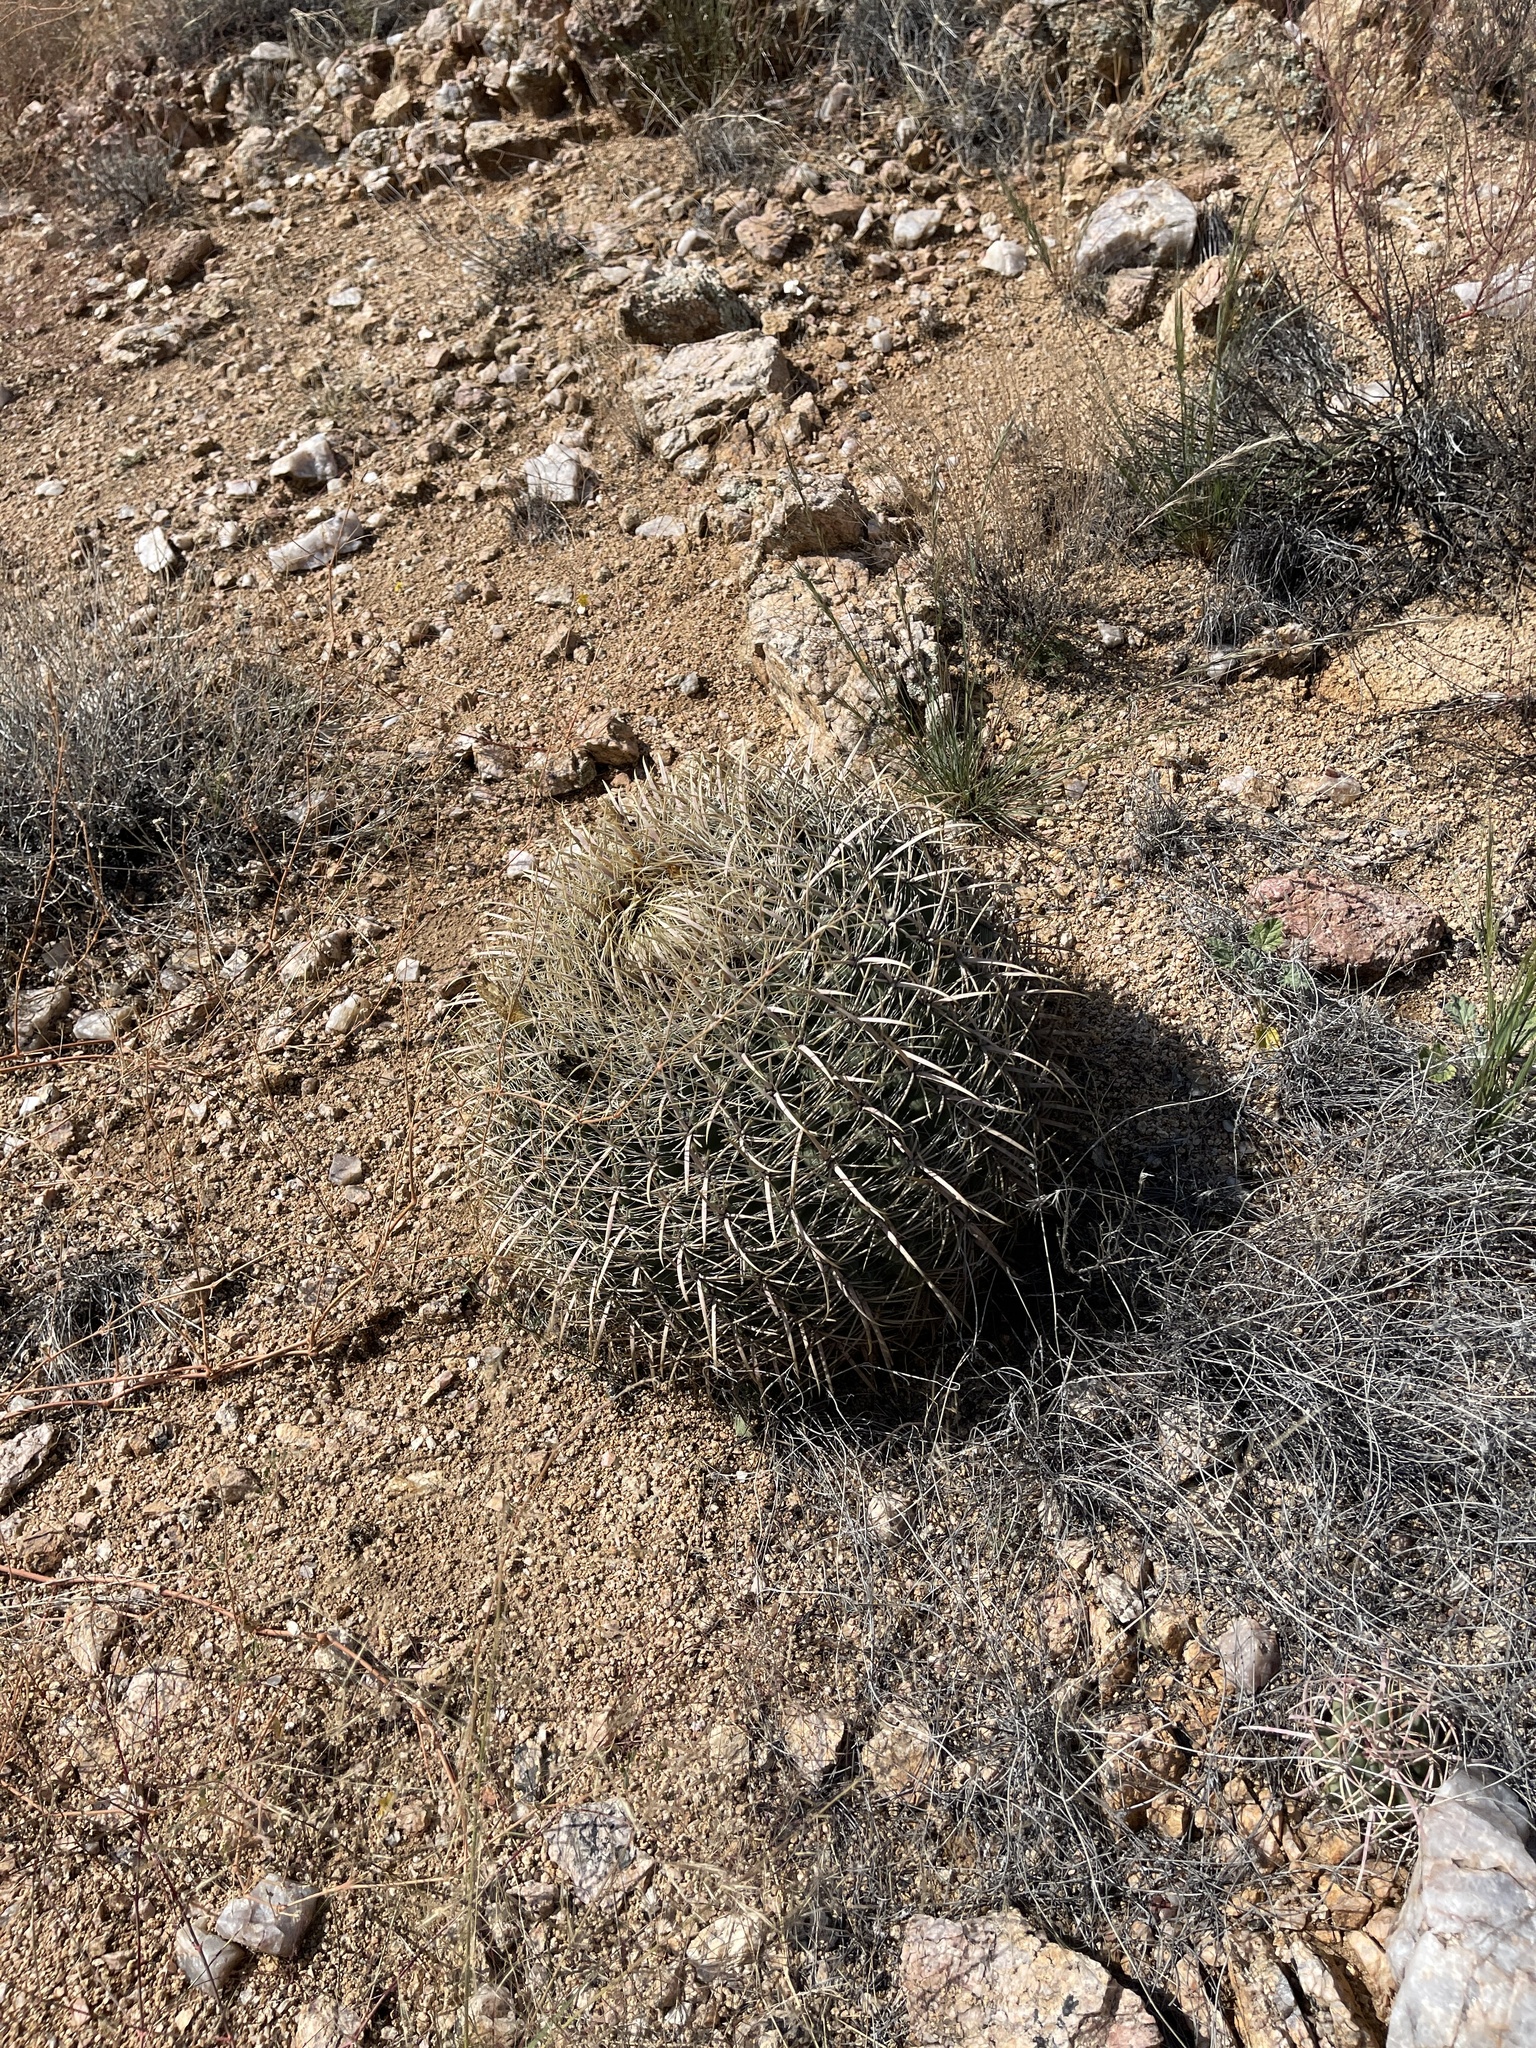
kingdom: Plantae
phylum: Tracheophyta
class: Magnoliopsida
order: Caryophyllales
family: Cactaceae
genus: Ferocactus
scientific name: Ferocactus cylindraceus
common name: California barrel cactus
